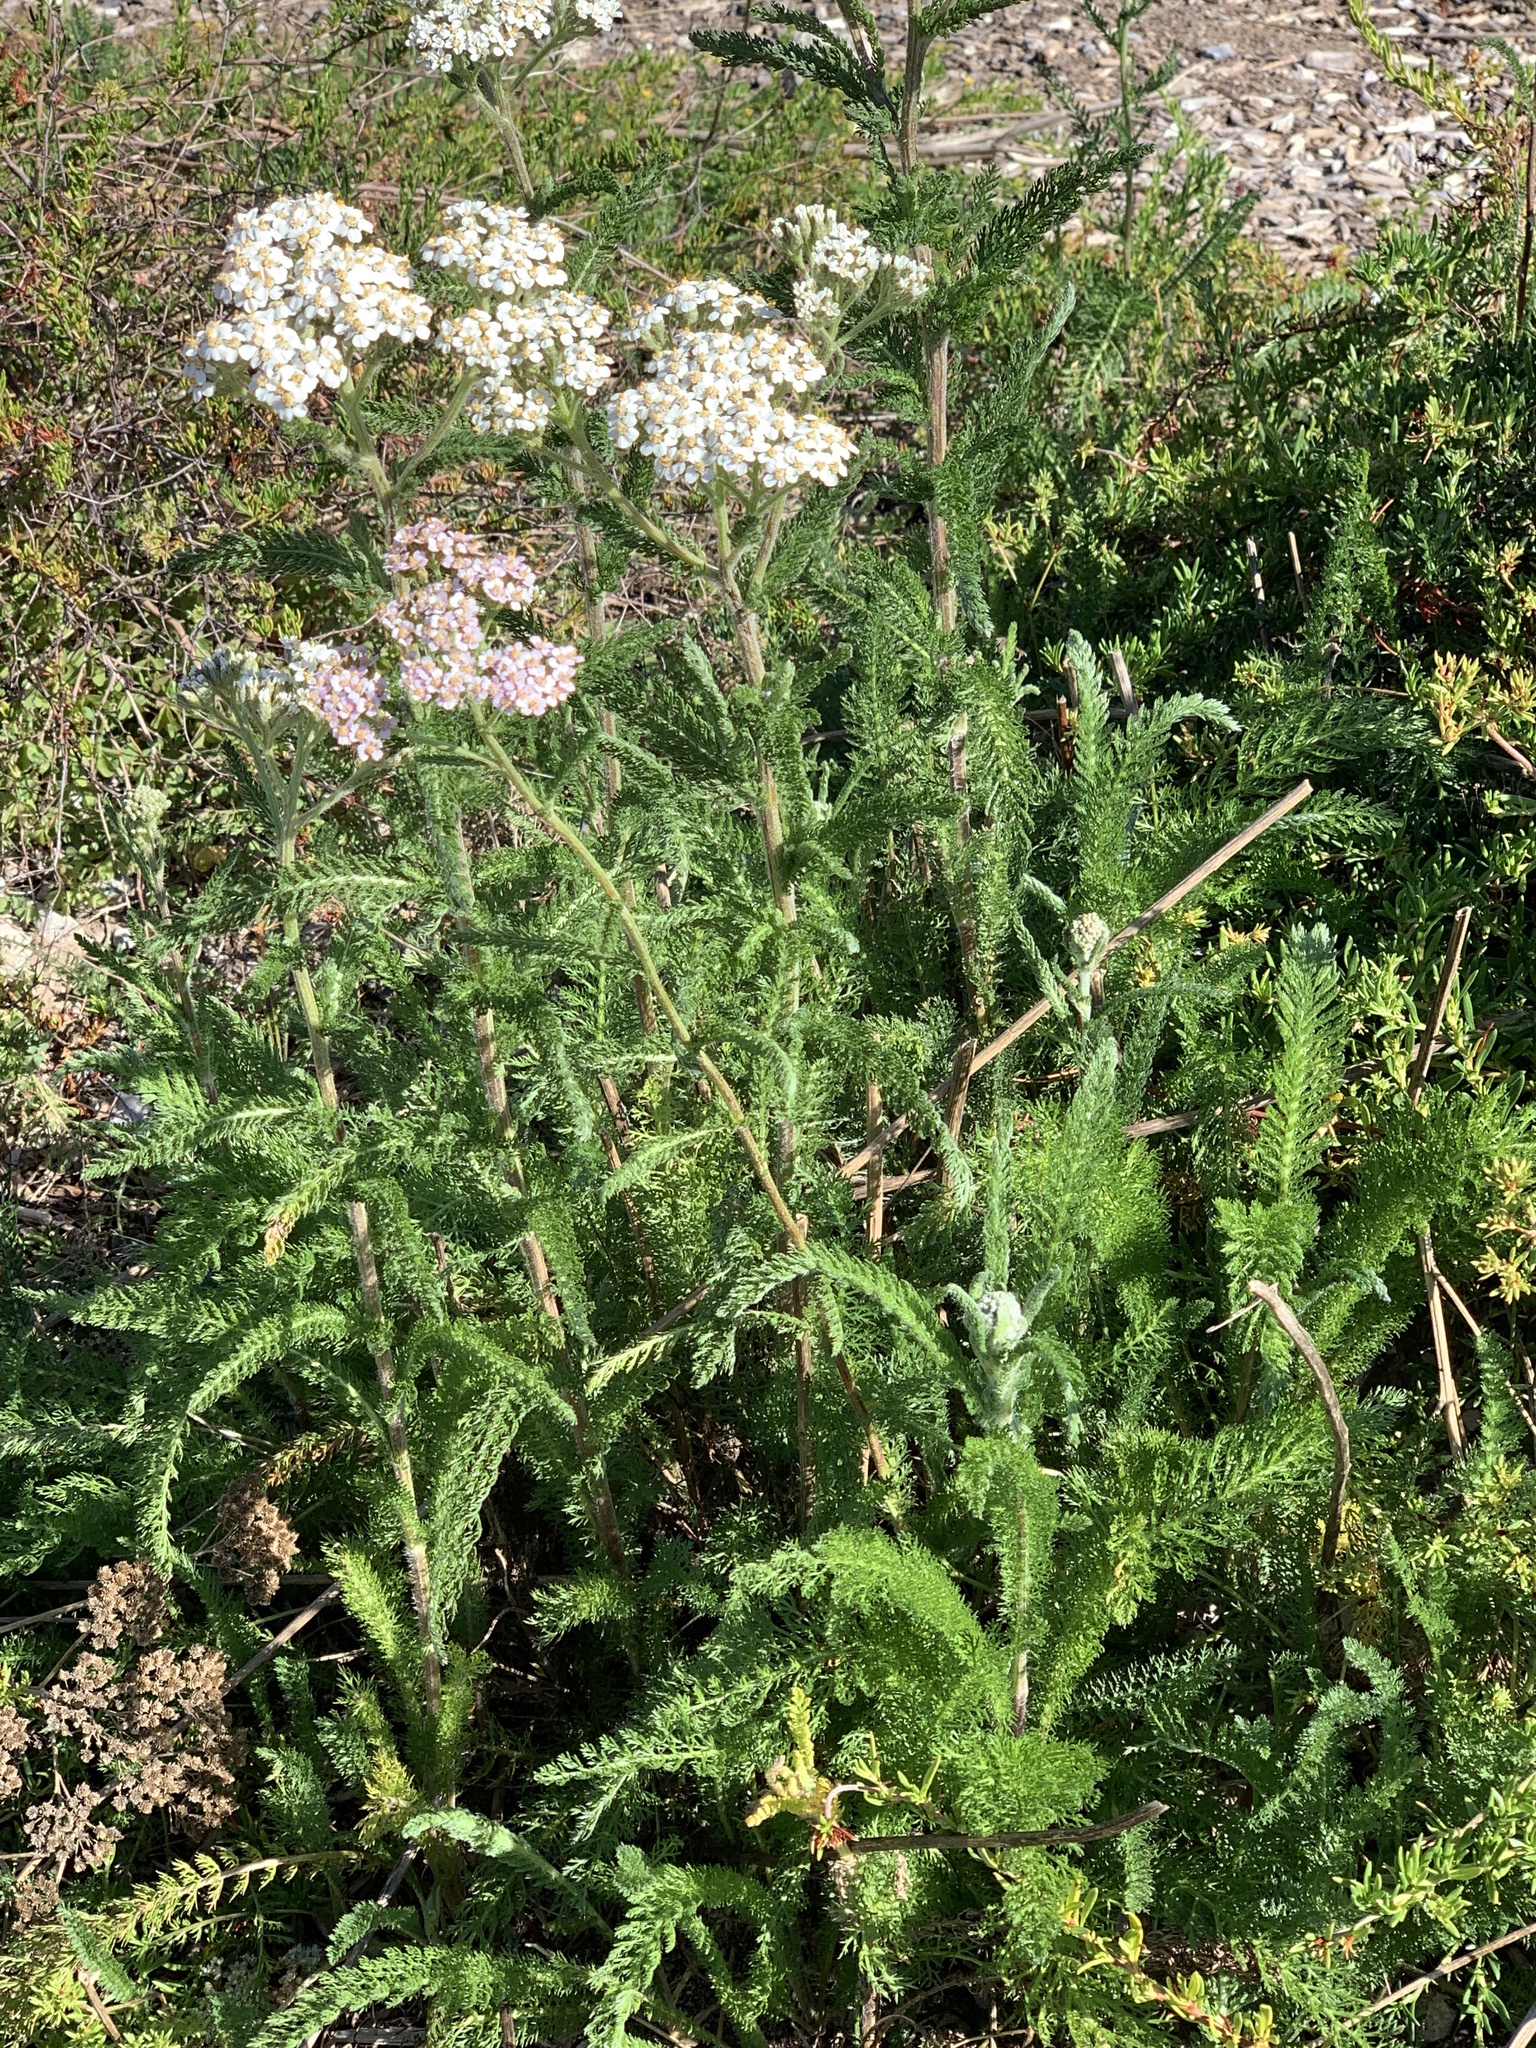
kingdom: Plantae
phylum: Tracheophyta
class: Magnoliopsida
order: Asterales
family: Asteraceae
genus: Achillea
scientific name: Achillea millefolium
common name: Yarrow
